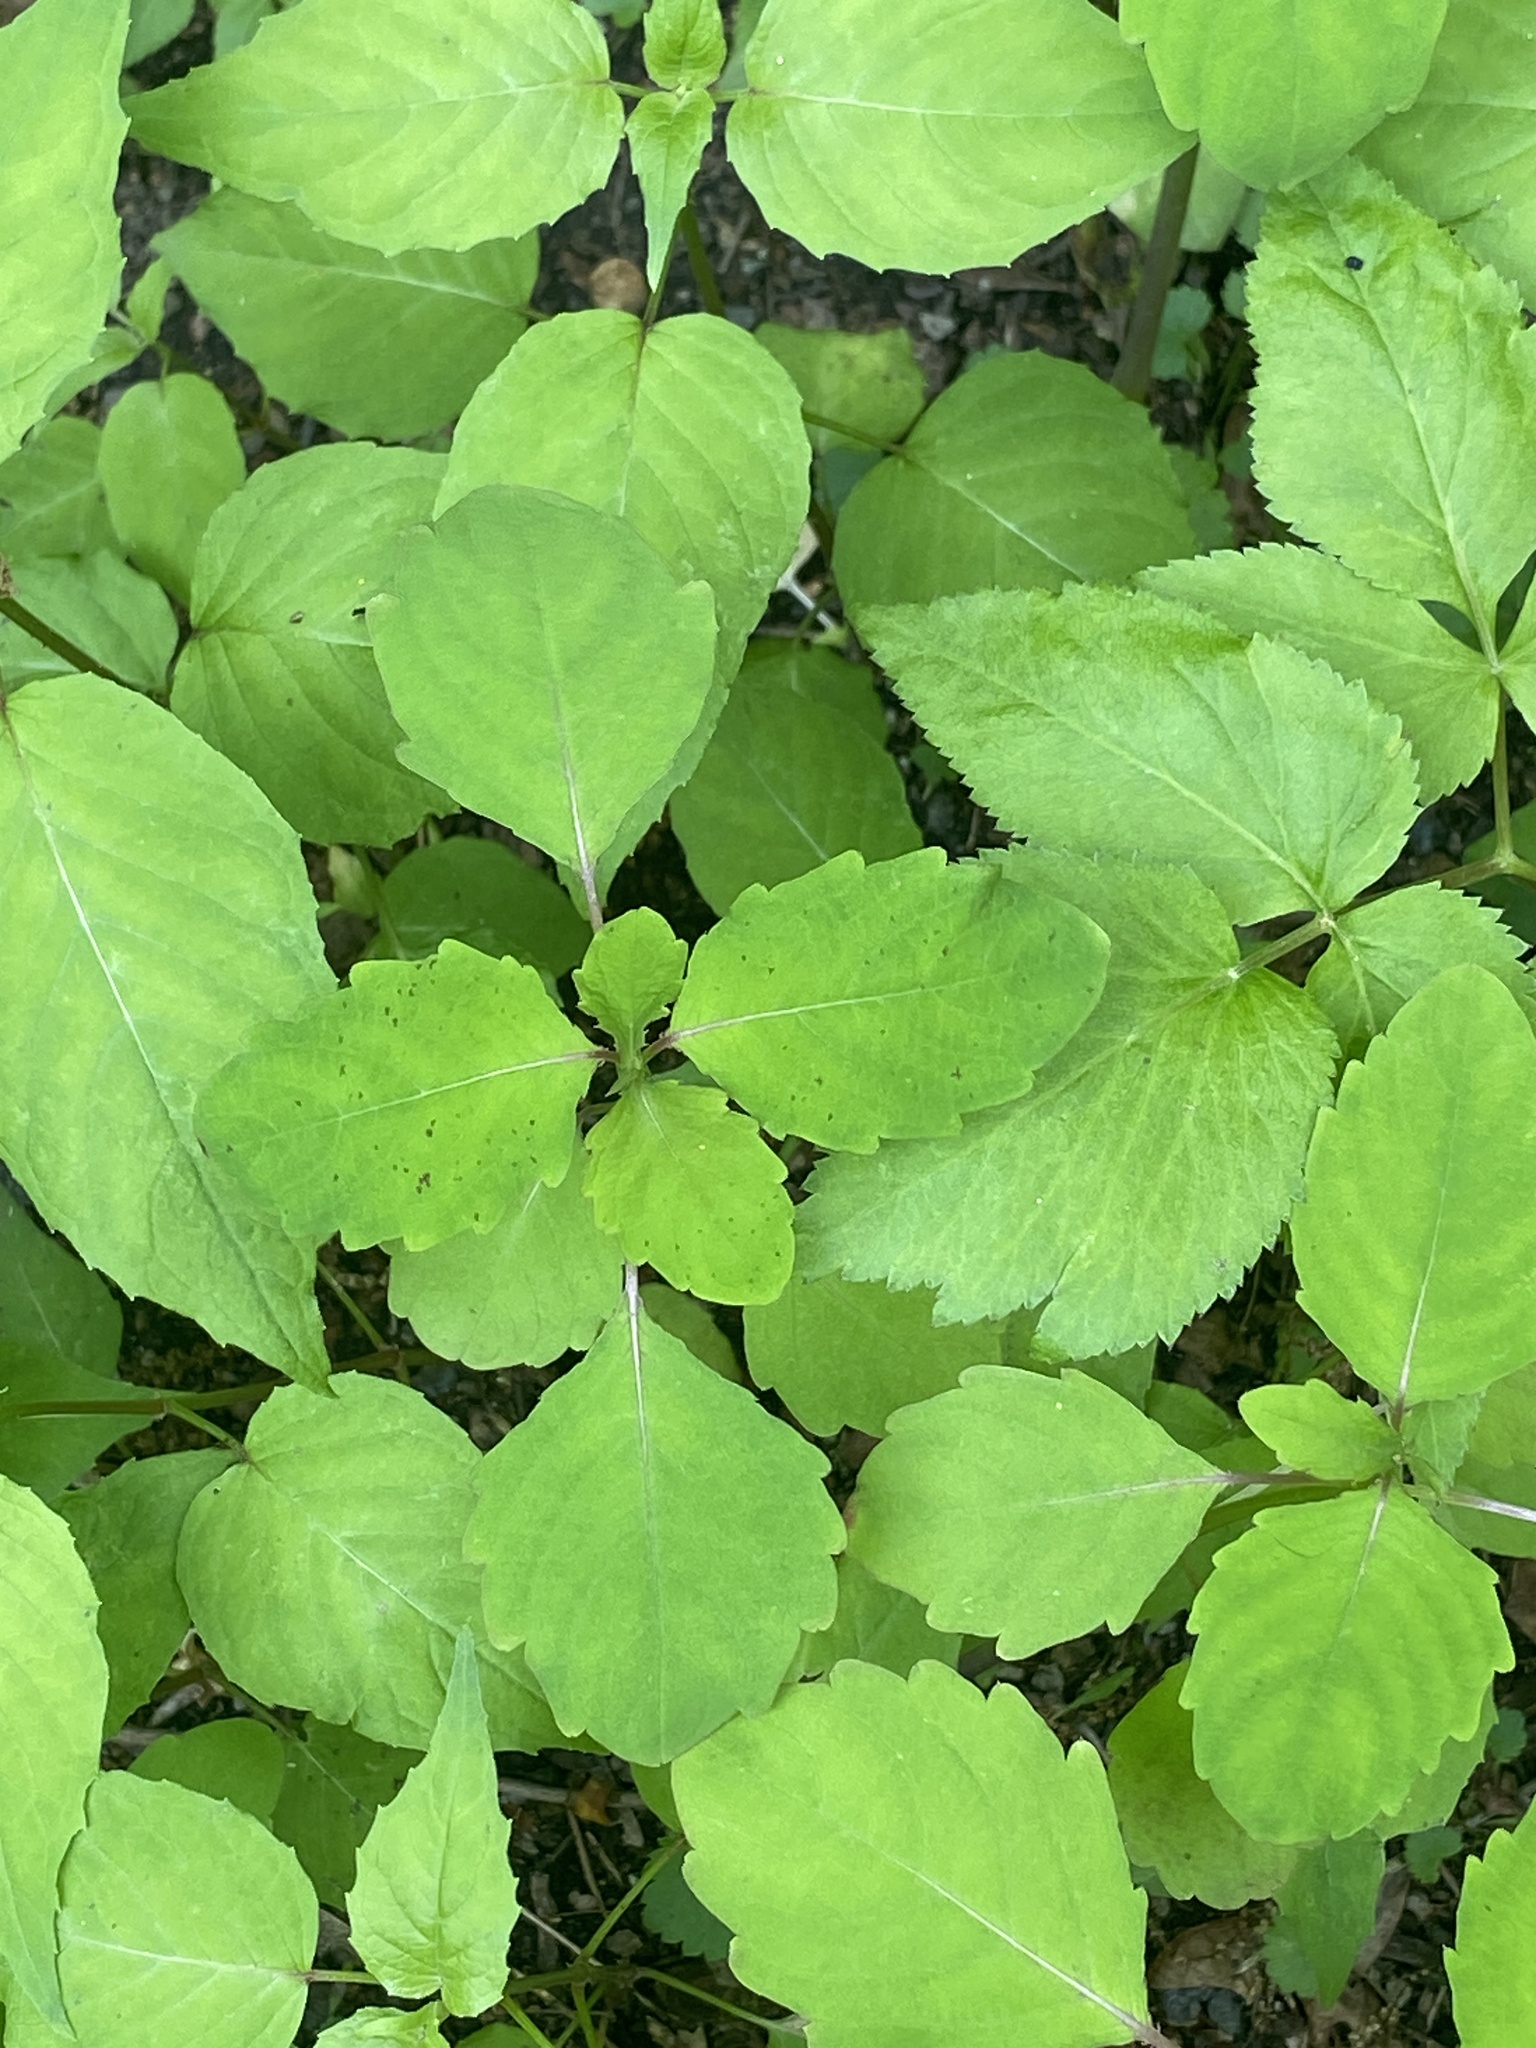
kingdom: Plantae
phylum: Tracheophyta
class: Magnoliopsida
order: Ericales
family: Balsaminaceae
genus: Impatiens
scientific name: Impatiens capensis
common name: Orange balsam
